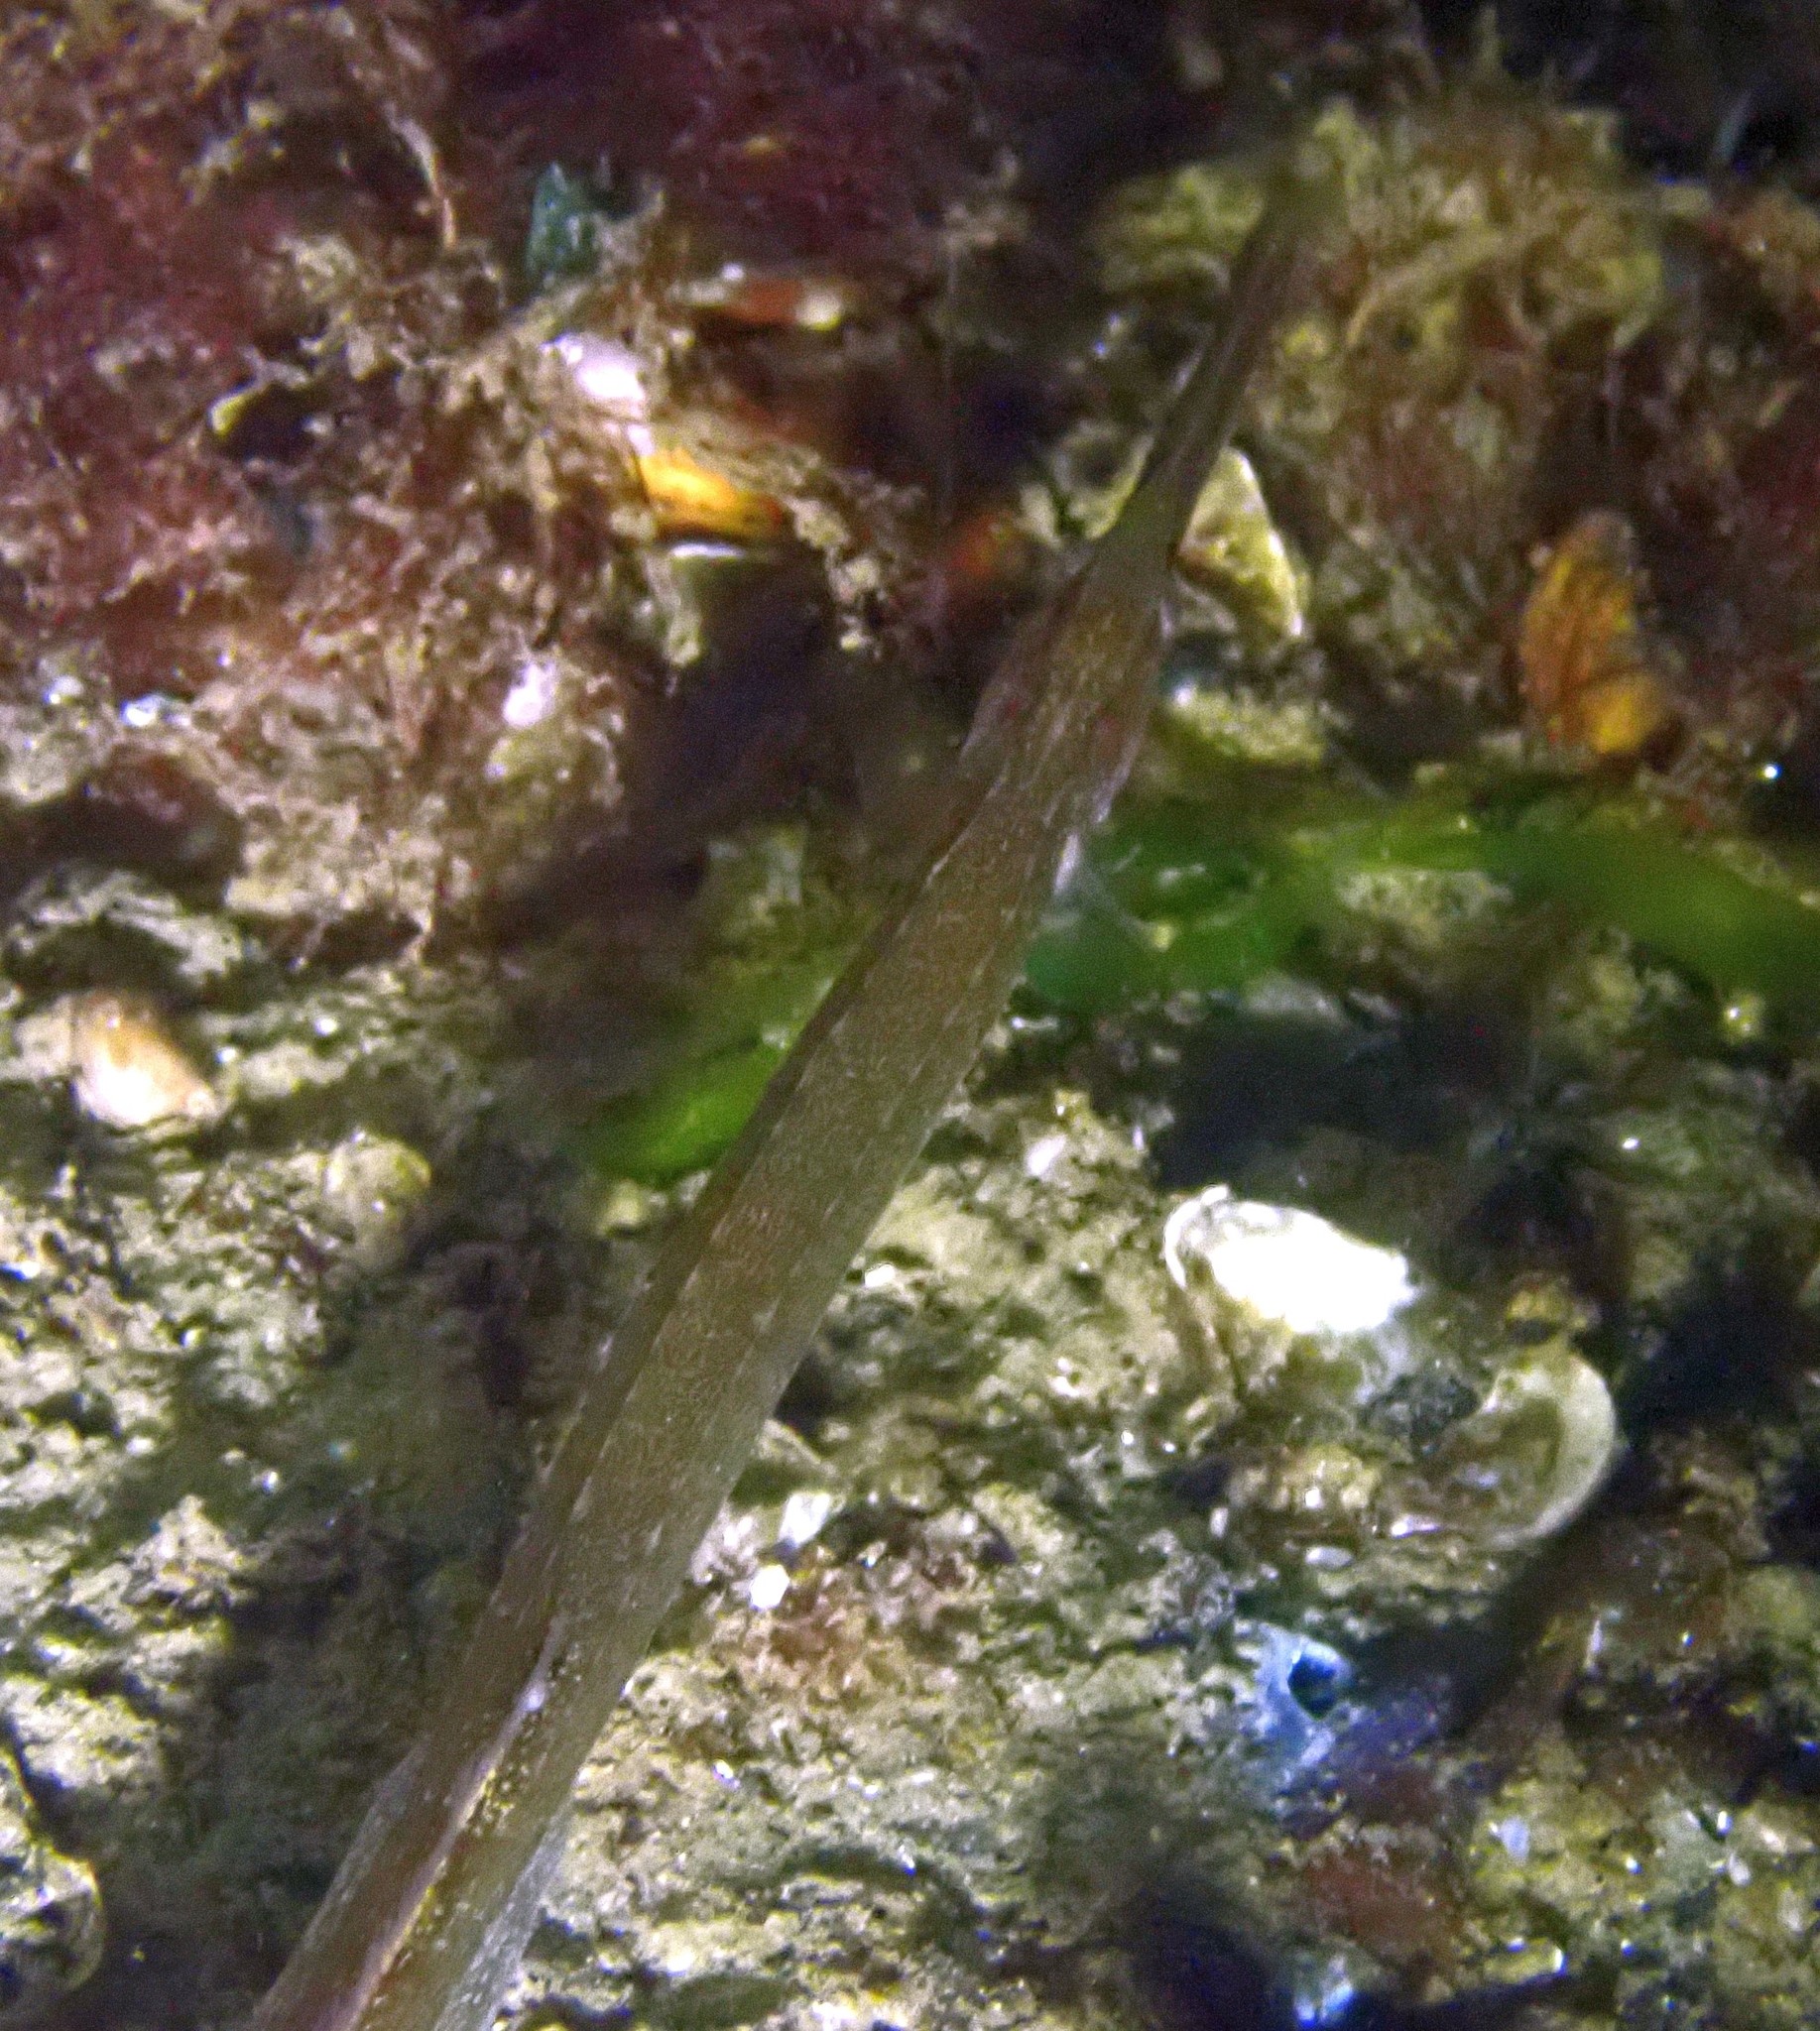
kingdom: Animalia
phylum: Chordata
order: Syngnathiformes
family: Syngnathidae
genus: Syngnathus
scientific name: Syngnathus typhle
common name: Deep-snouted pipefish
